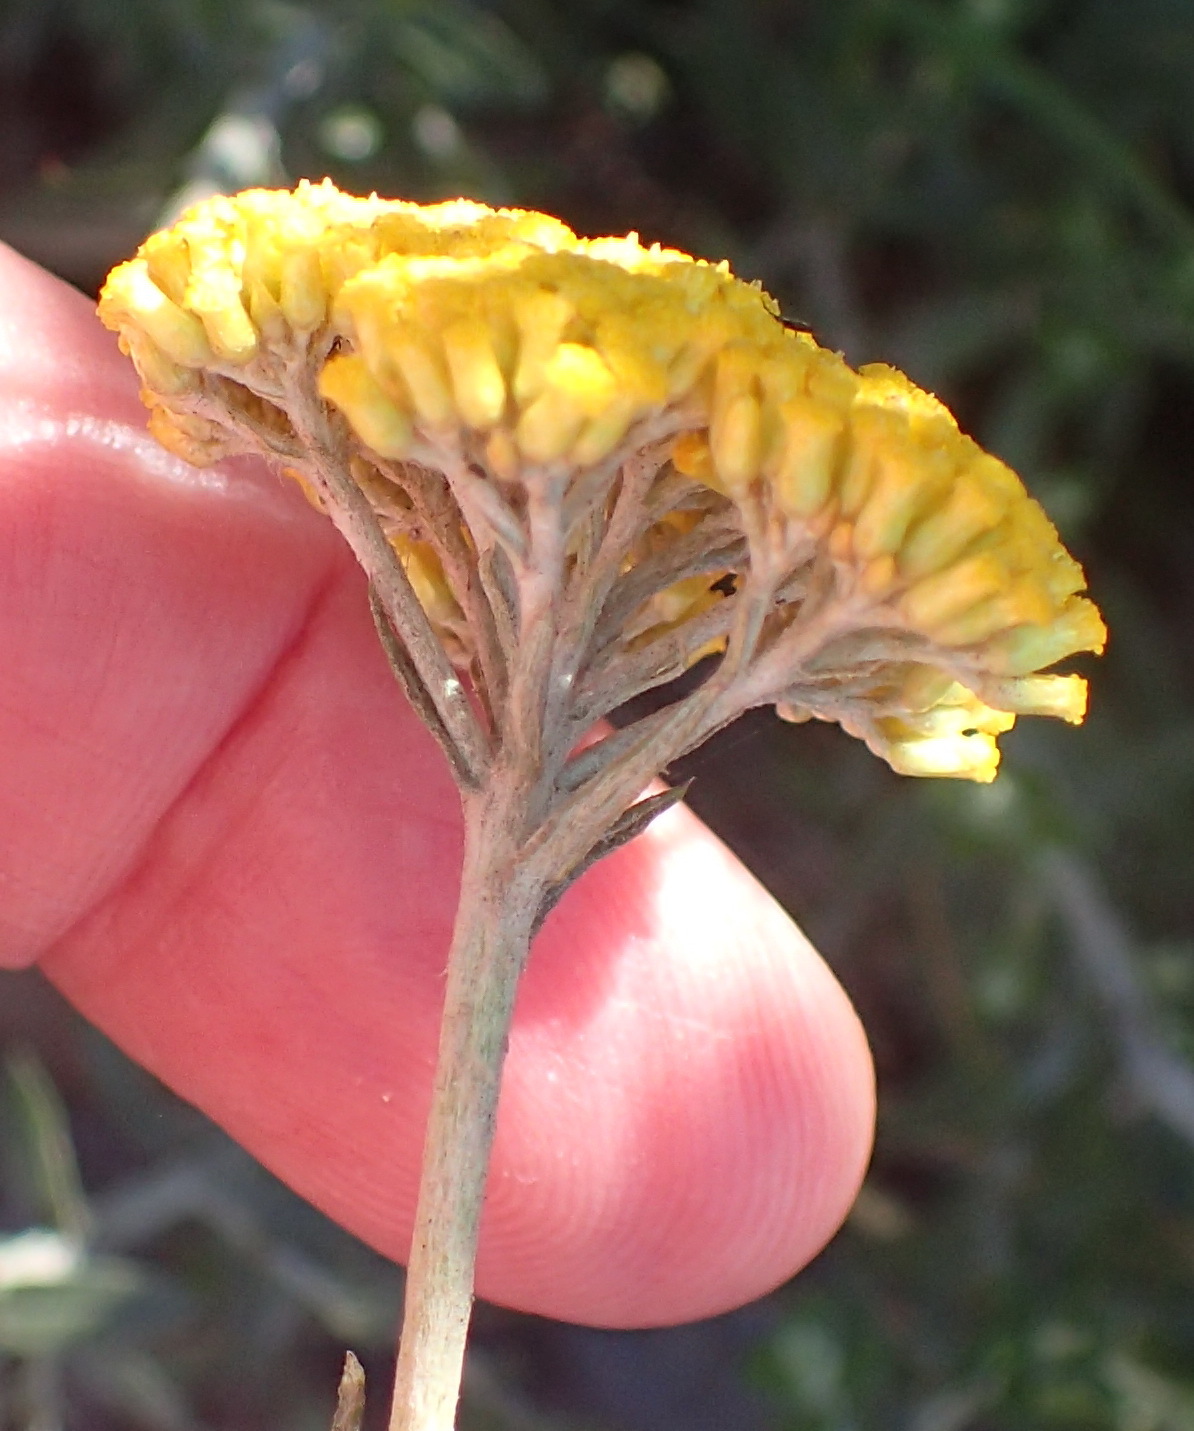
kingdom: Plantae
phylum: Tracheophyta
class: Magnoliopsida
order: Asterales
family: Asteraceae
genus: Helichrysum
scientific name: Helichrysum cymosum
